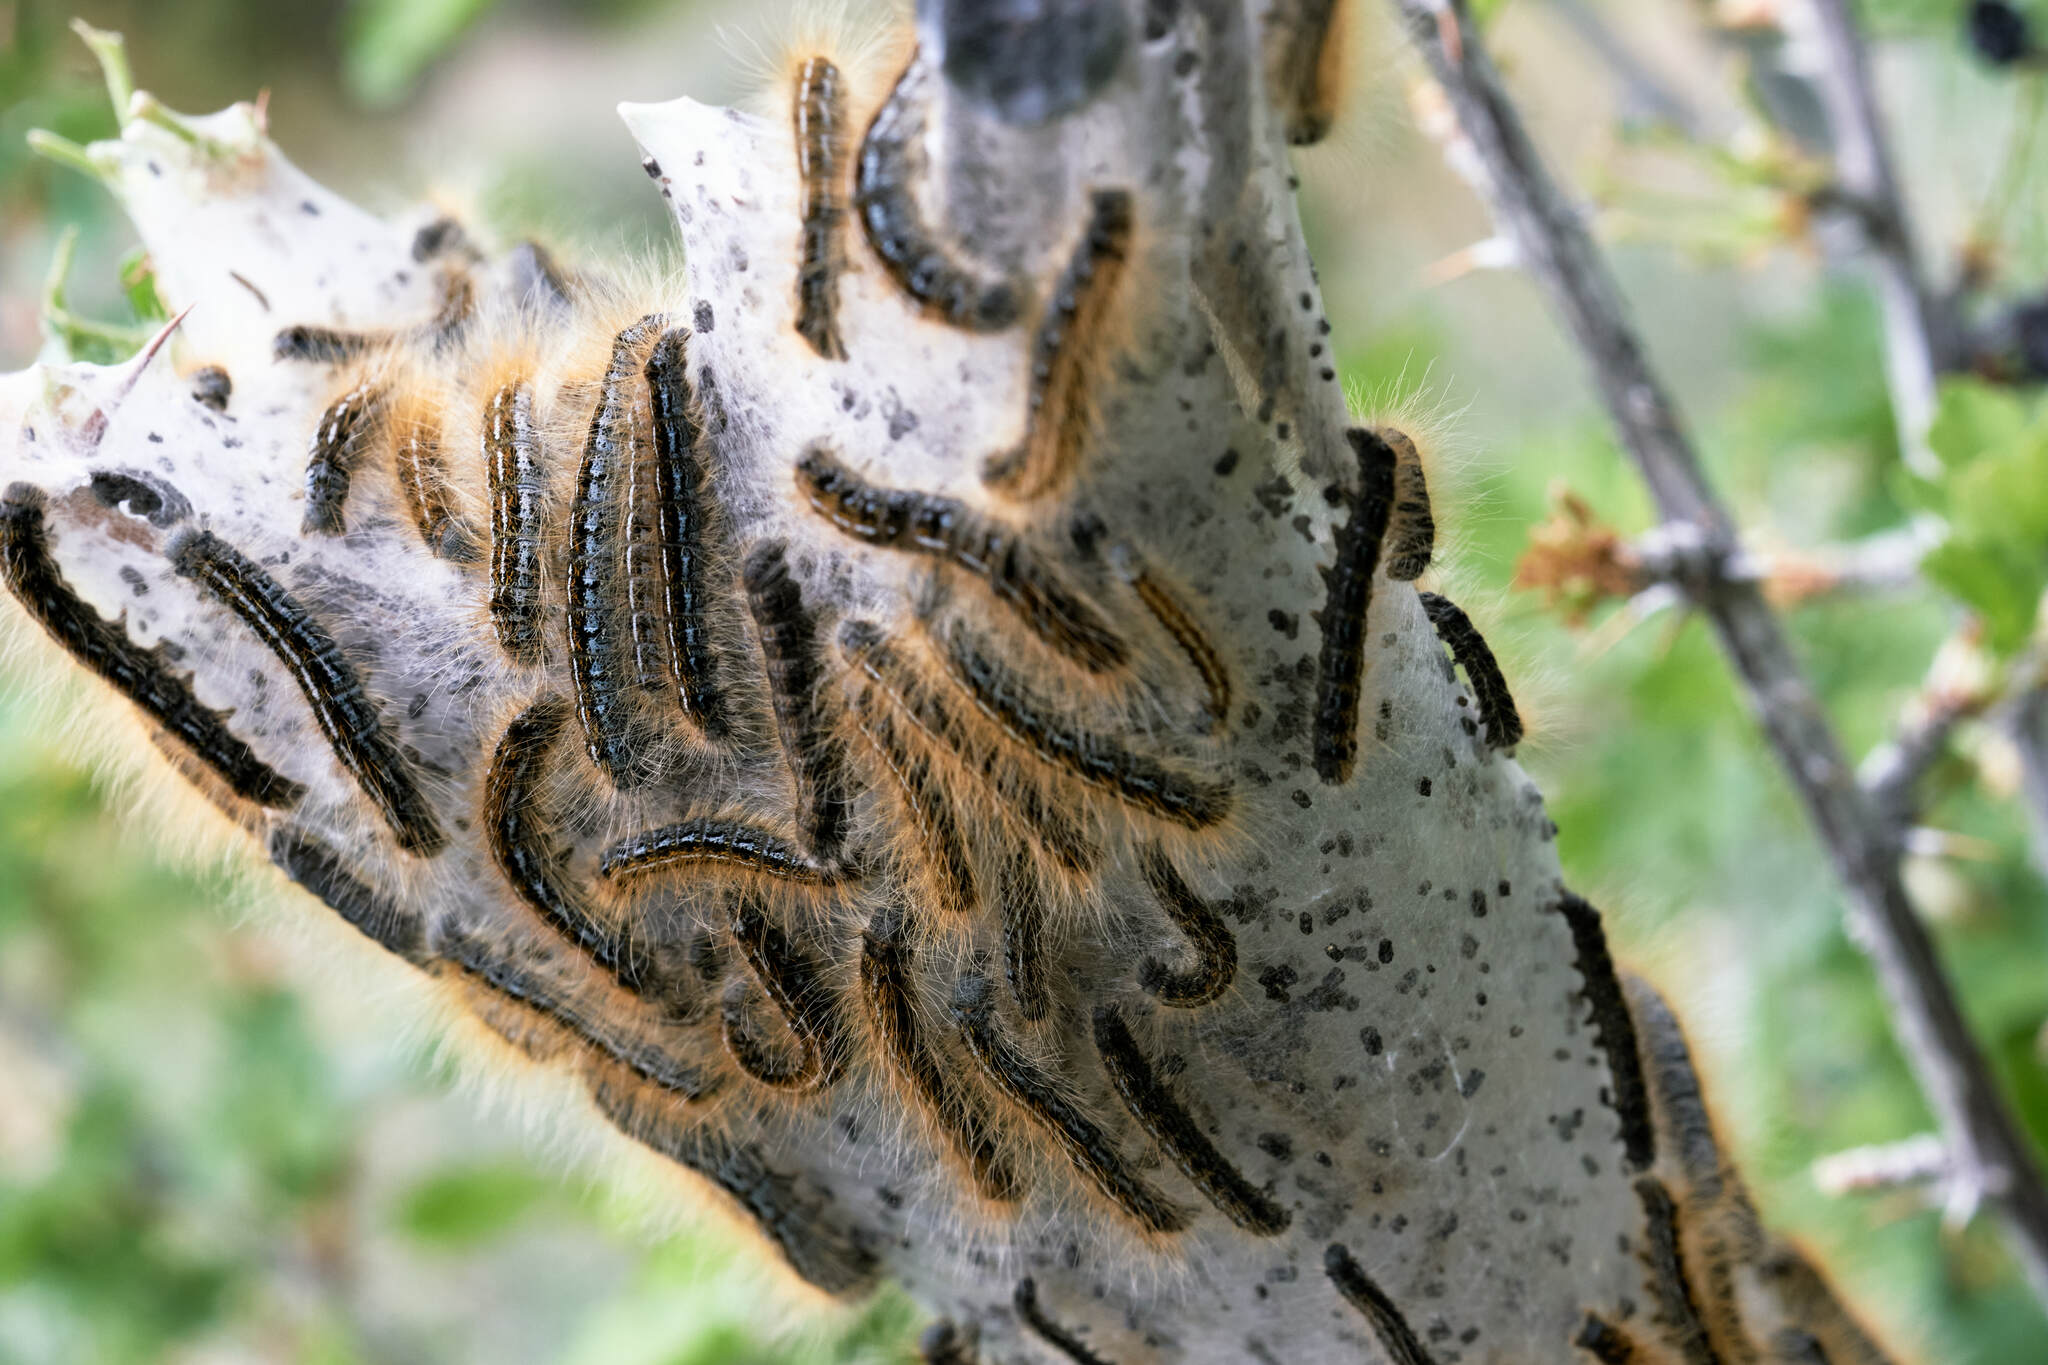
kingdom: Animalia
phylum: Arthropoda
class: Insecta
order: Lepidoptera
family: Lasiocampidae
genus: Malacosoma
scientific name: Malacosoma californica
